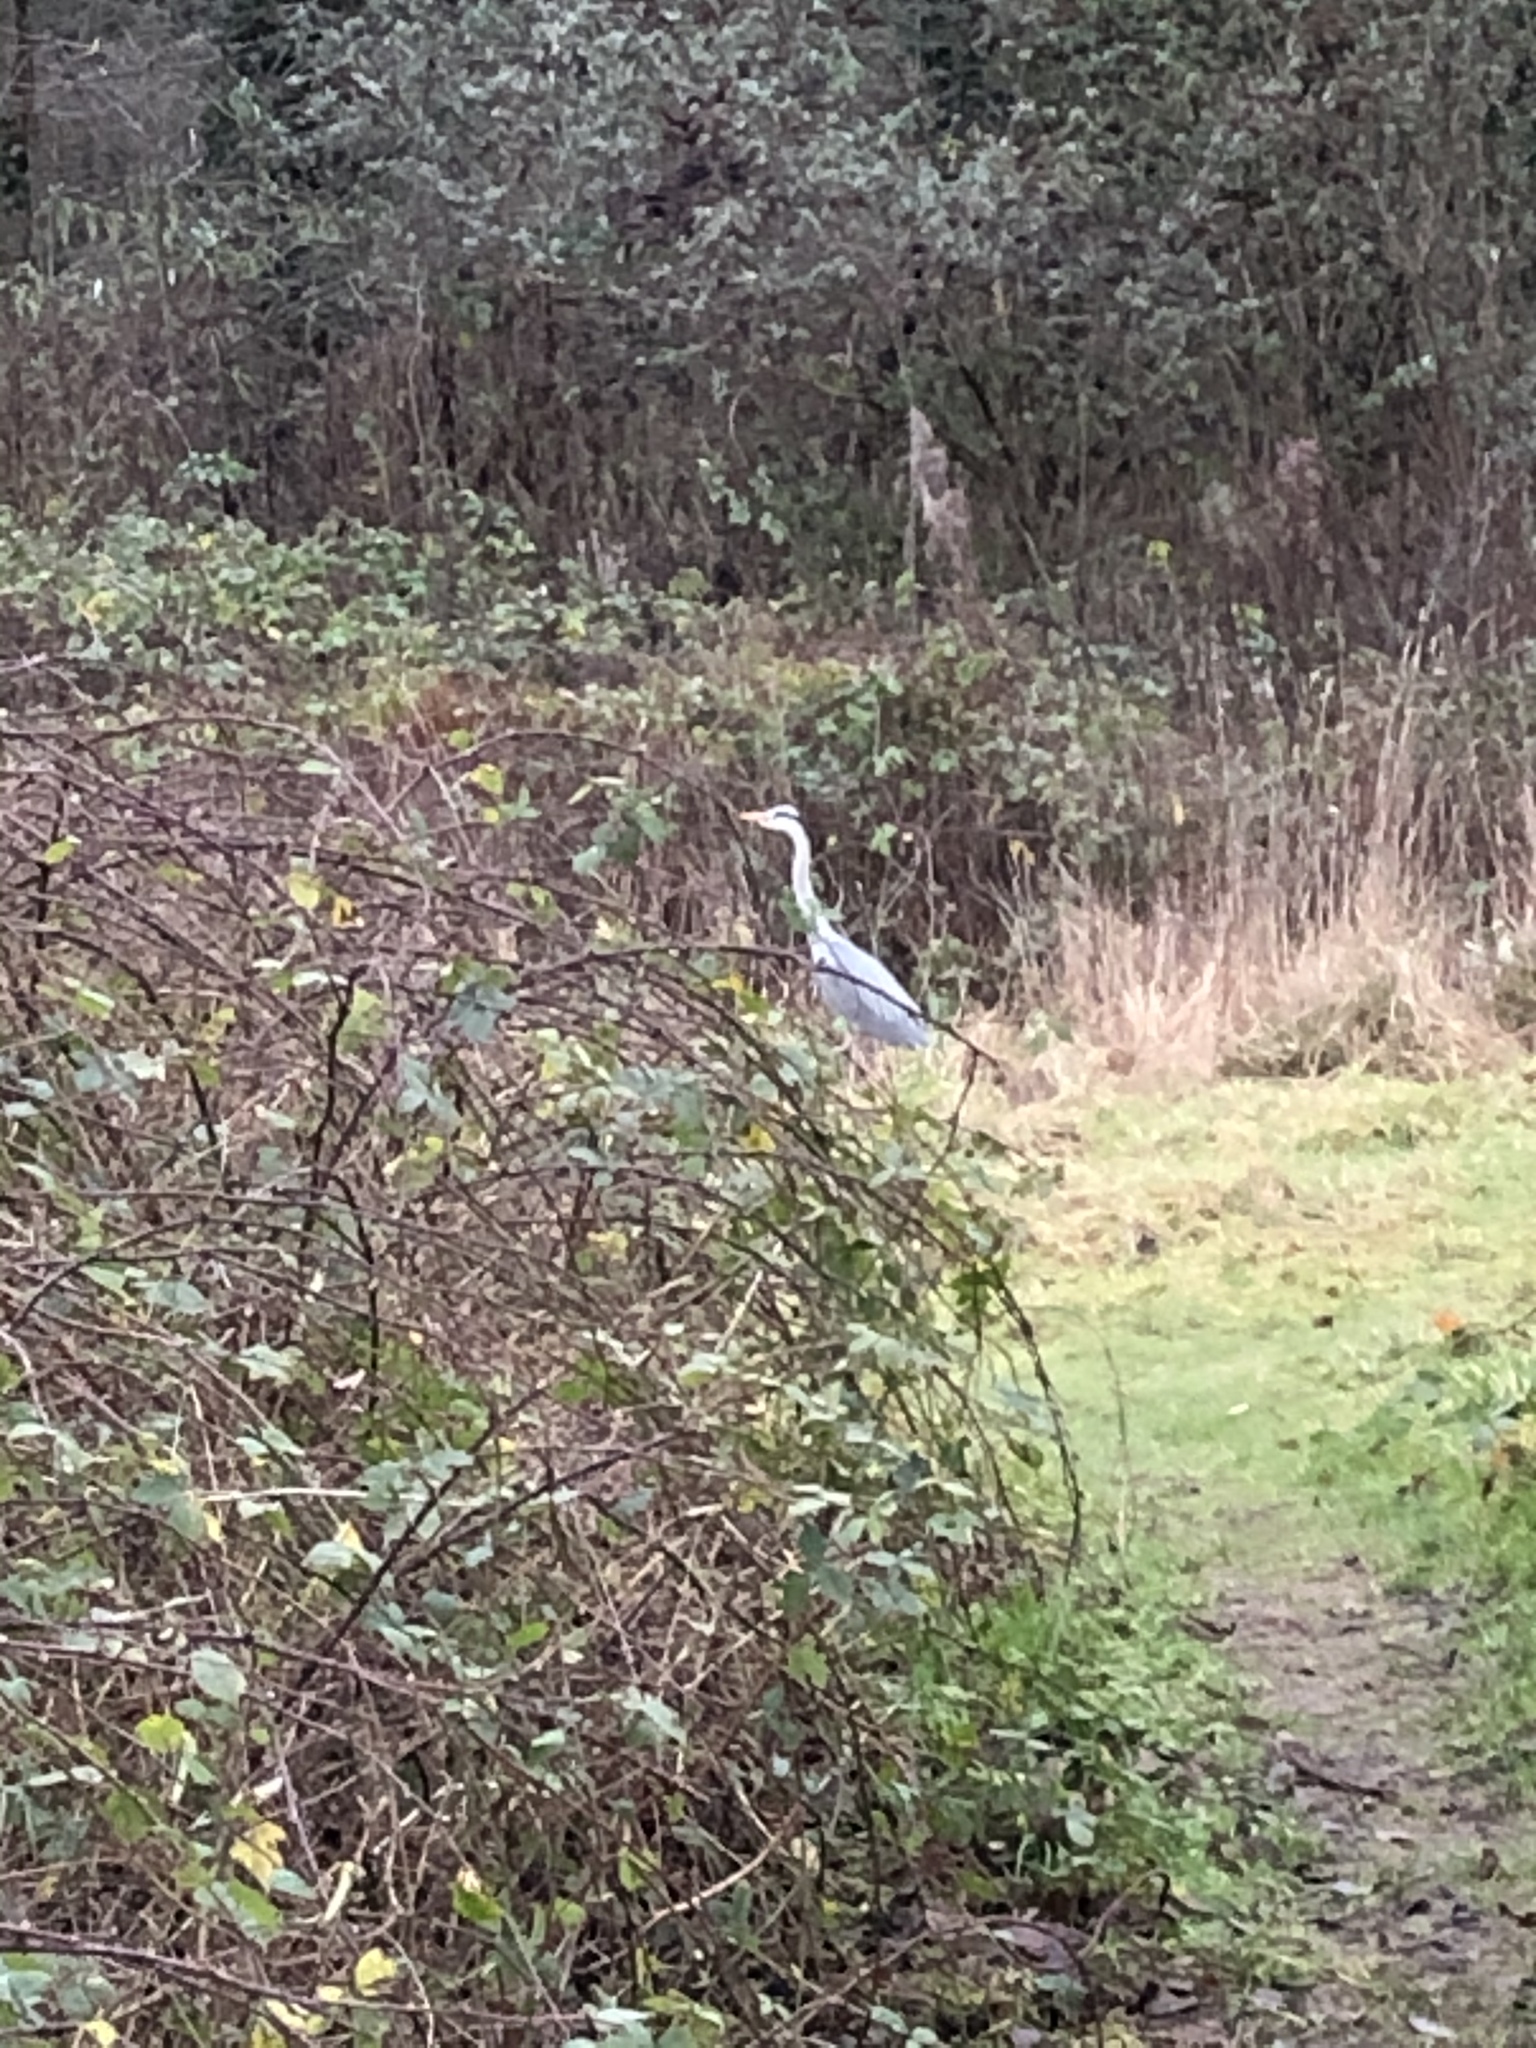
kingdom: Animalia
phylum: Chordata
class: Aves
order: Pelecaniformes
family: Ardeidae
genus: Ardea
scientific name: Ardea cinerea
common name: Grey heron
